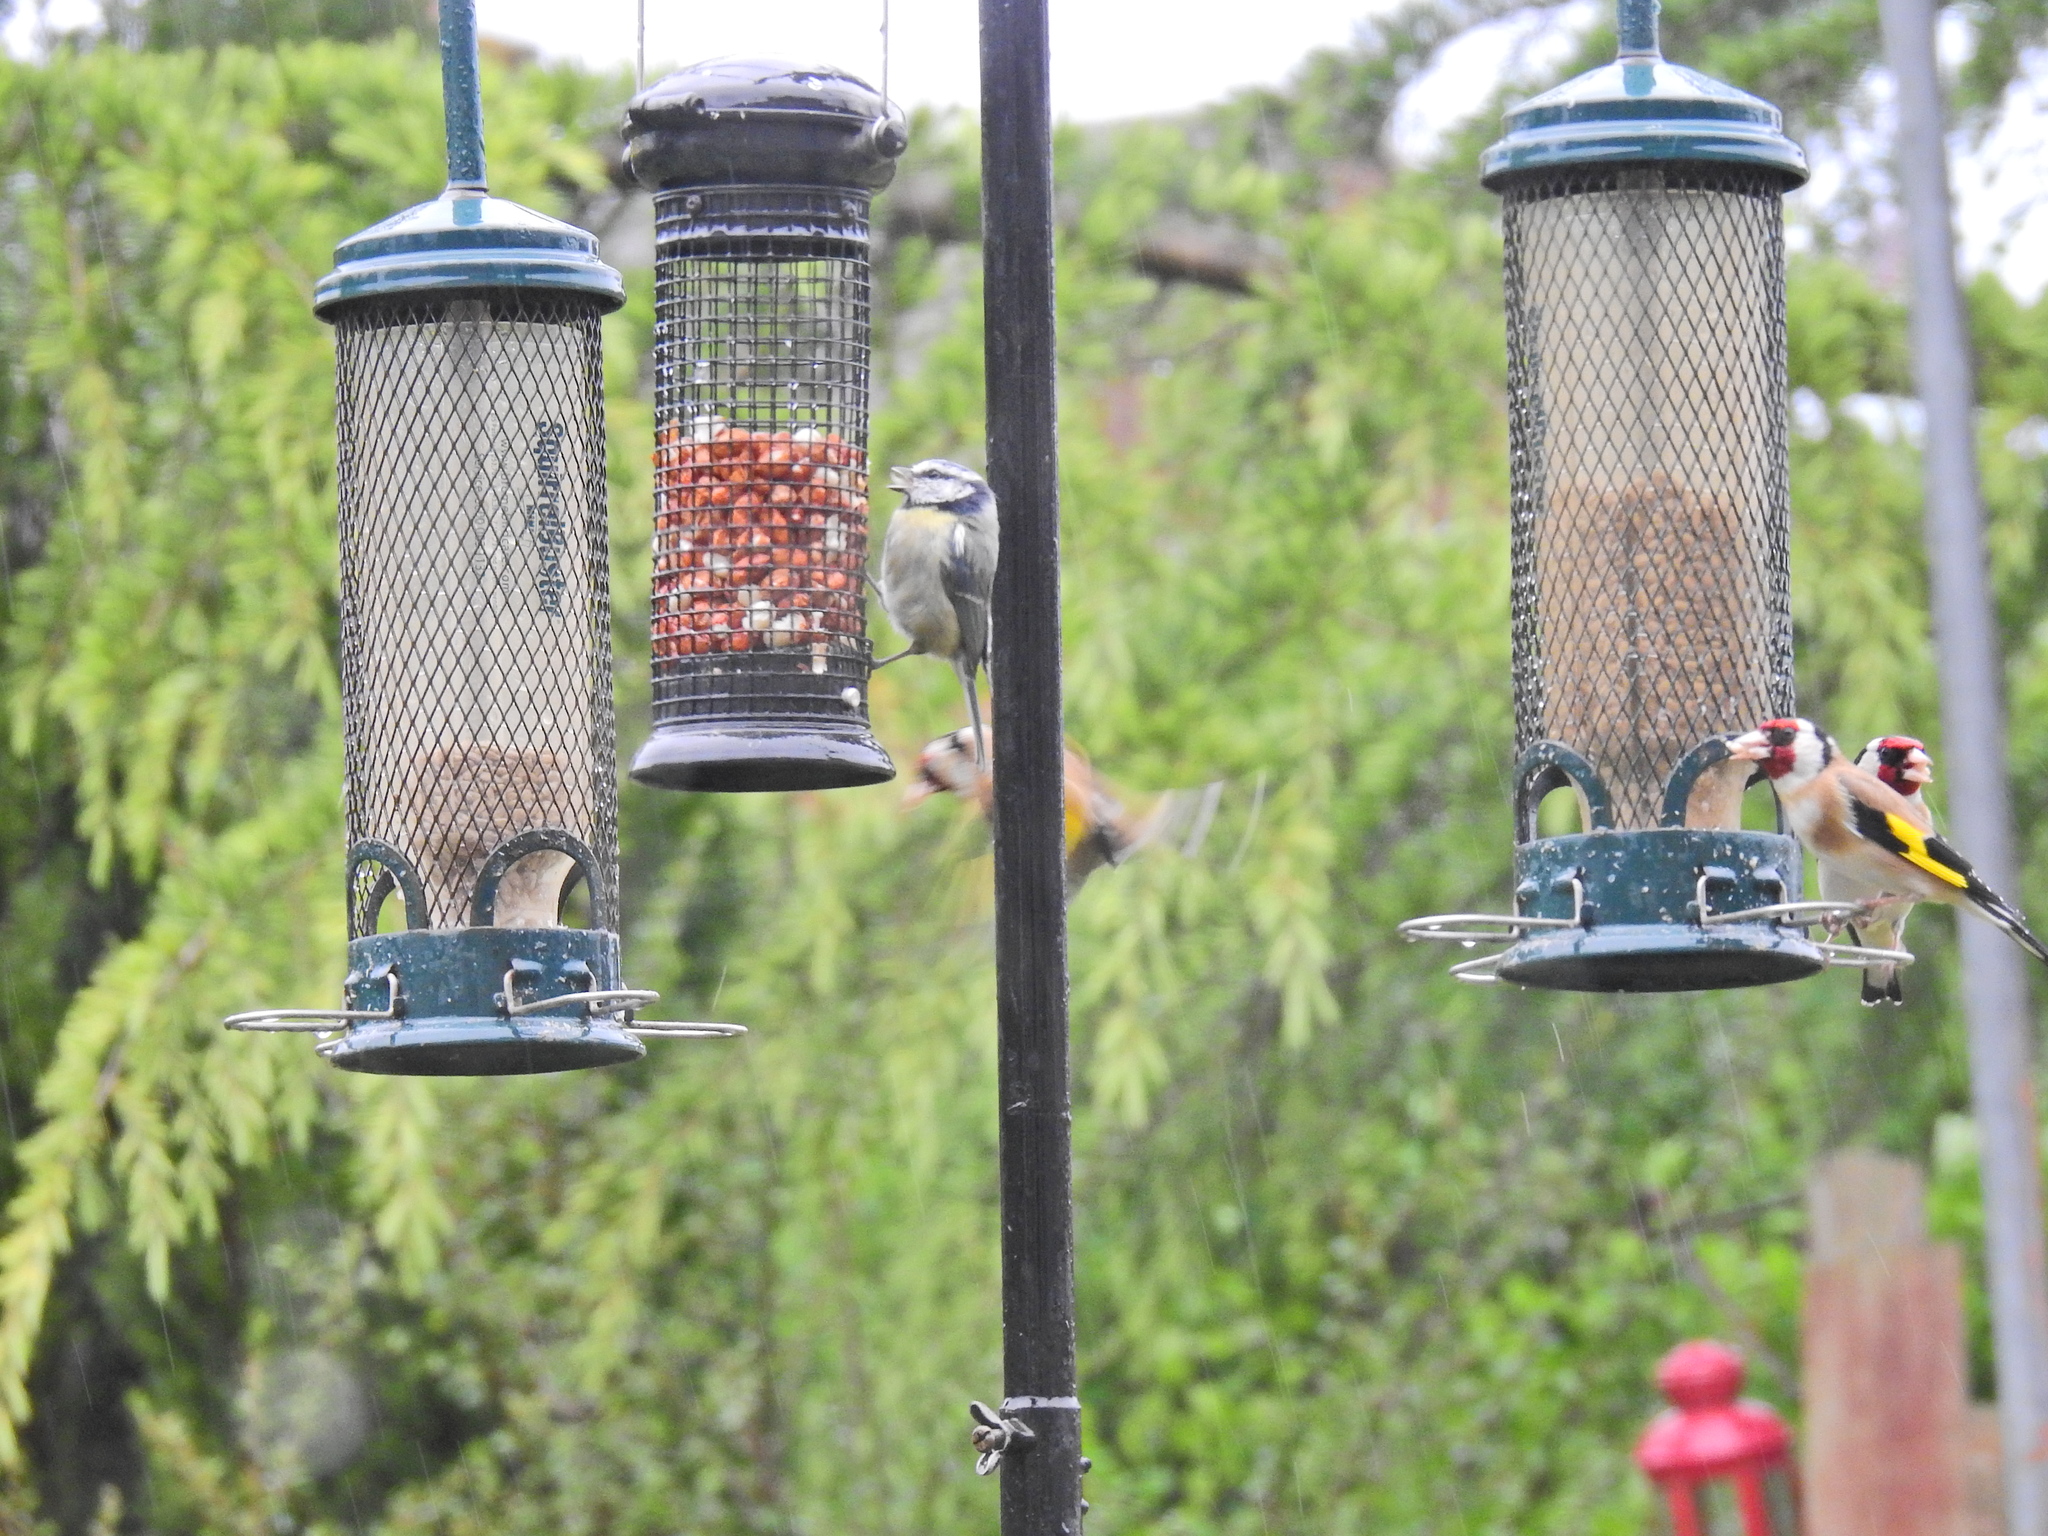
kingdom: Animalia
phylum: Chordata
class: Aves
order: Passeriformes
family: Paridae
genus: Cyanistes
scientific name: Cyanistes caeruleus
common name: Eurasian blue tit
